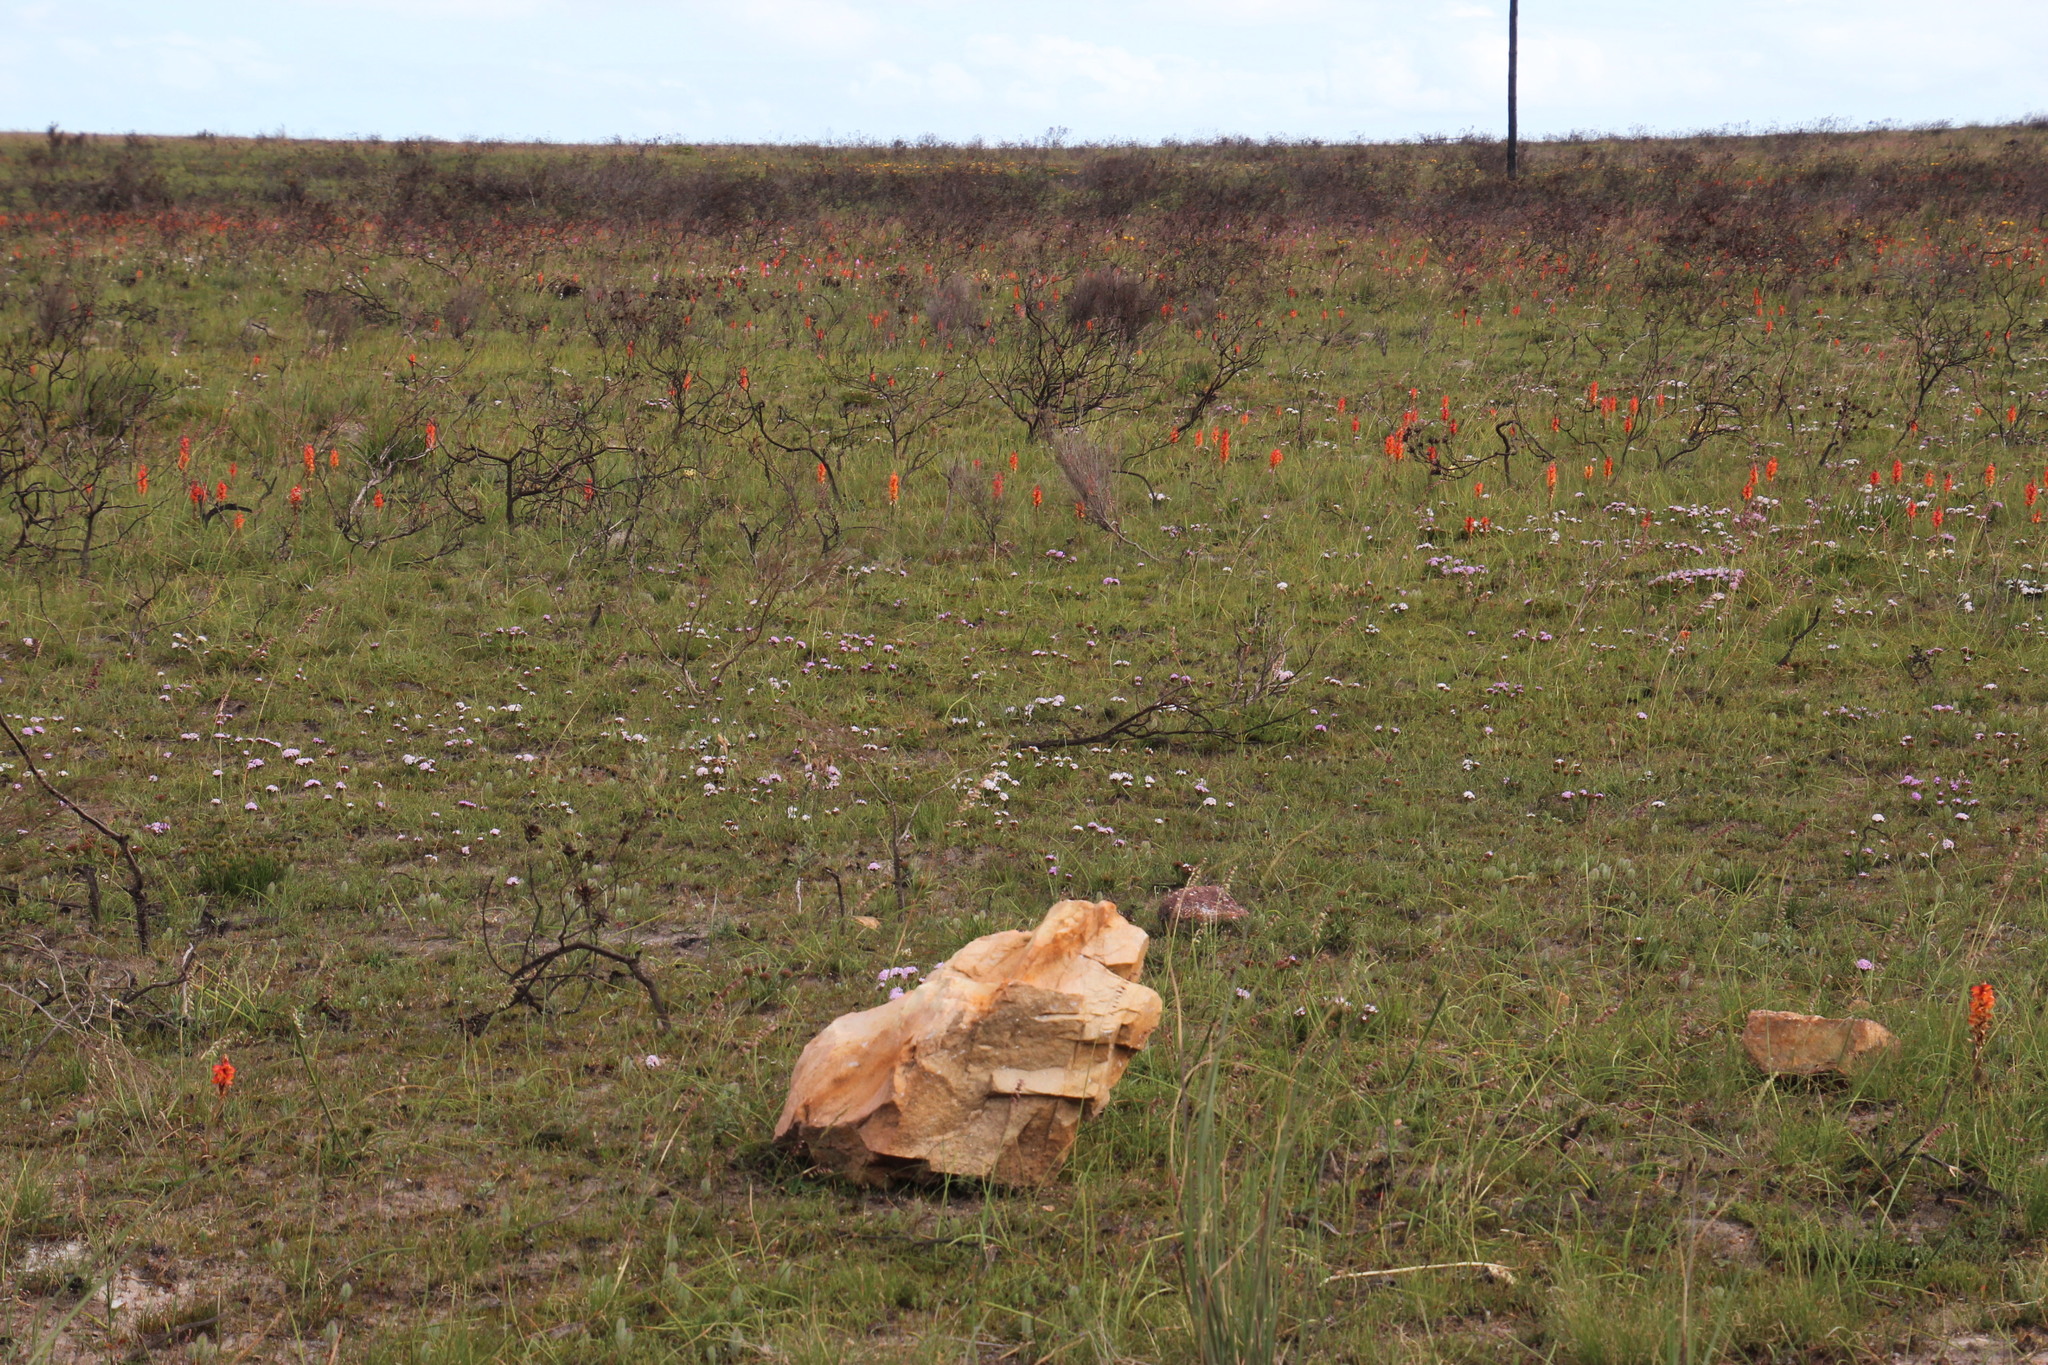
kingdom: Plantae
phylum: Tracheophyta
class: Liliopsida
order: Asparagales
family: Orchidaceae
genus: Satyrium
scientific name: Satyrium coriifolium
